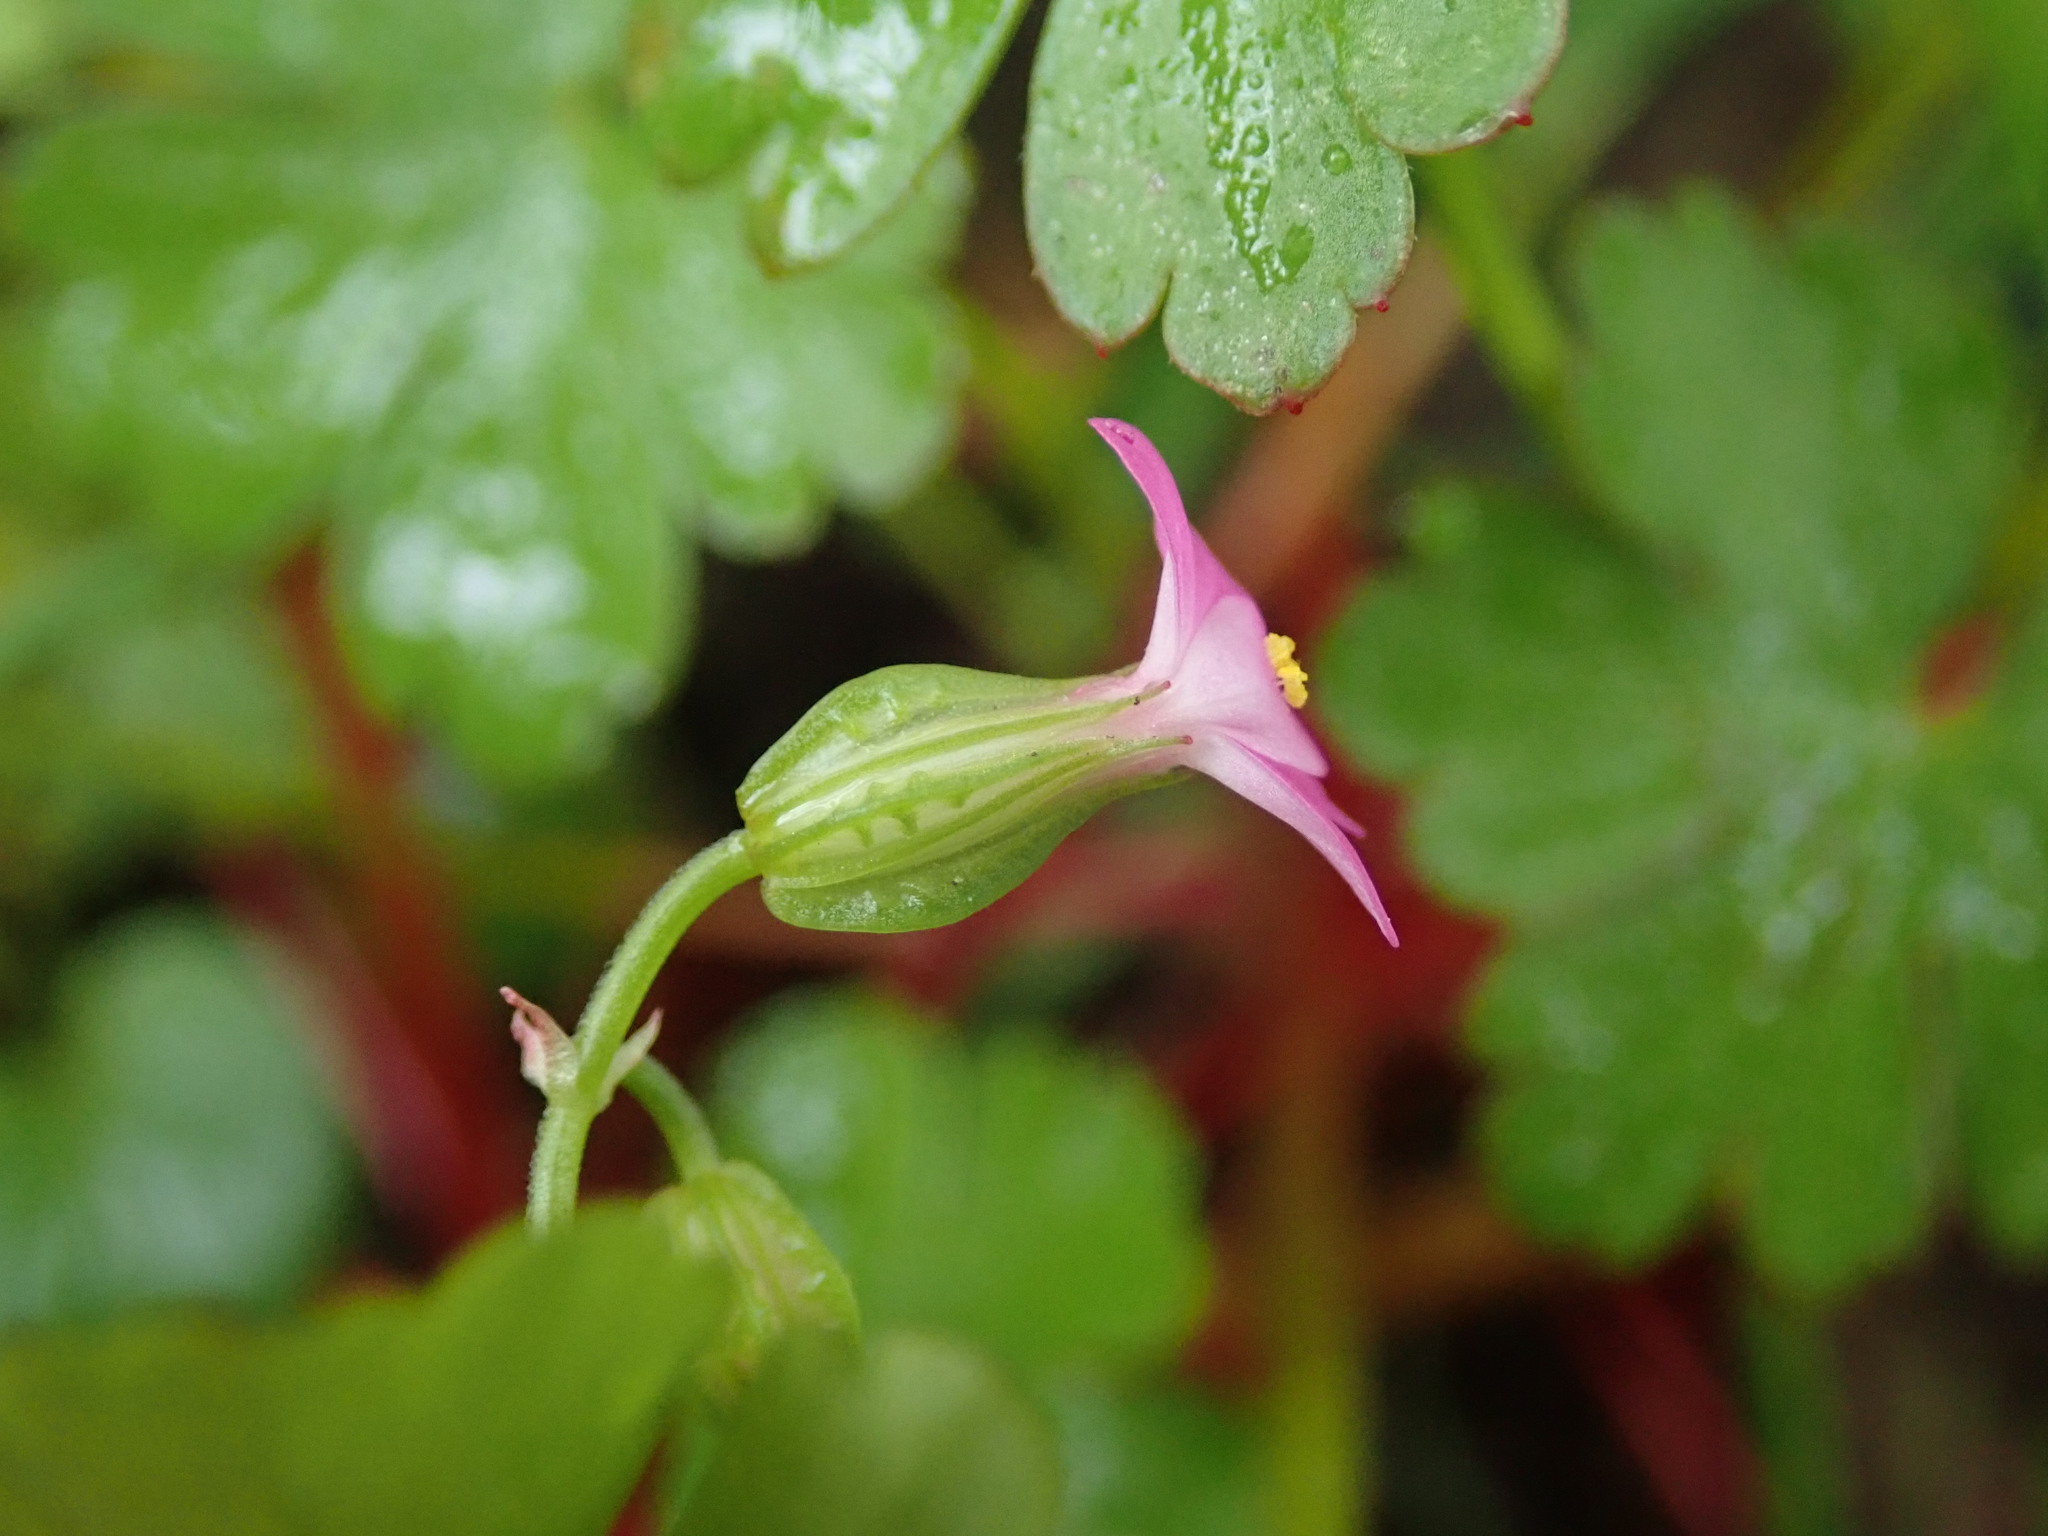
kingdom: Plantae
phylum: Tracheophyta
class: Magnoliopsida
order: Geraniales
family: Geraniaceae
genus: Geranium
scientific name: Geranium lucidum
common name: Shining crane's-bill
